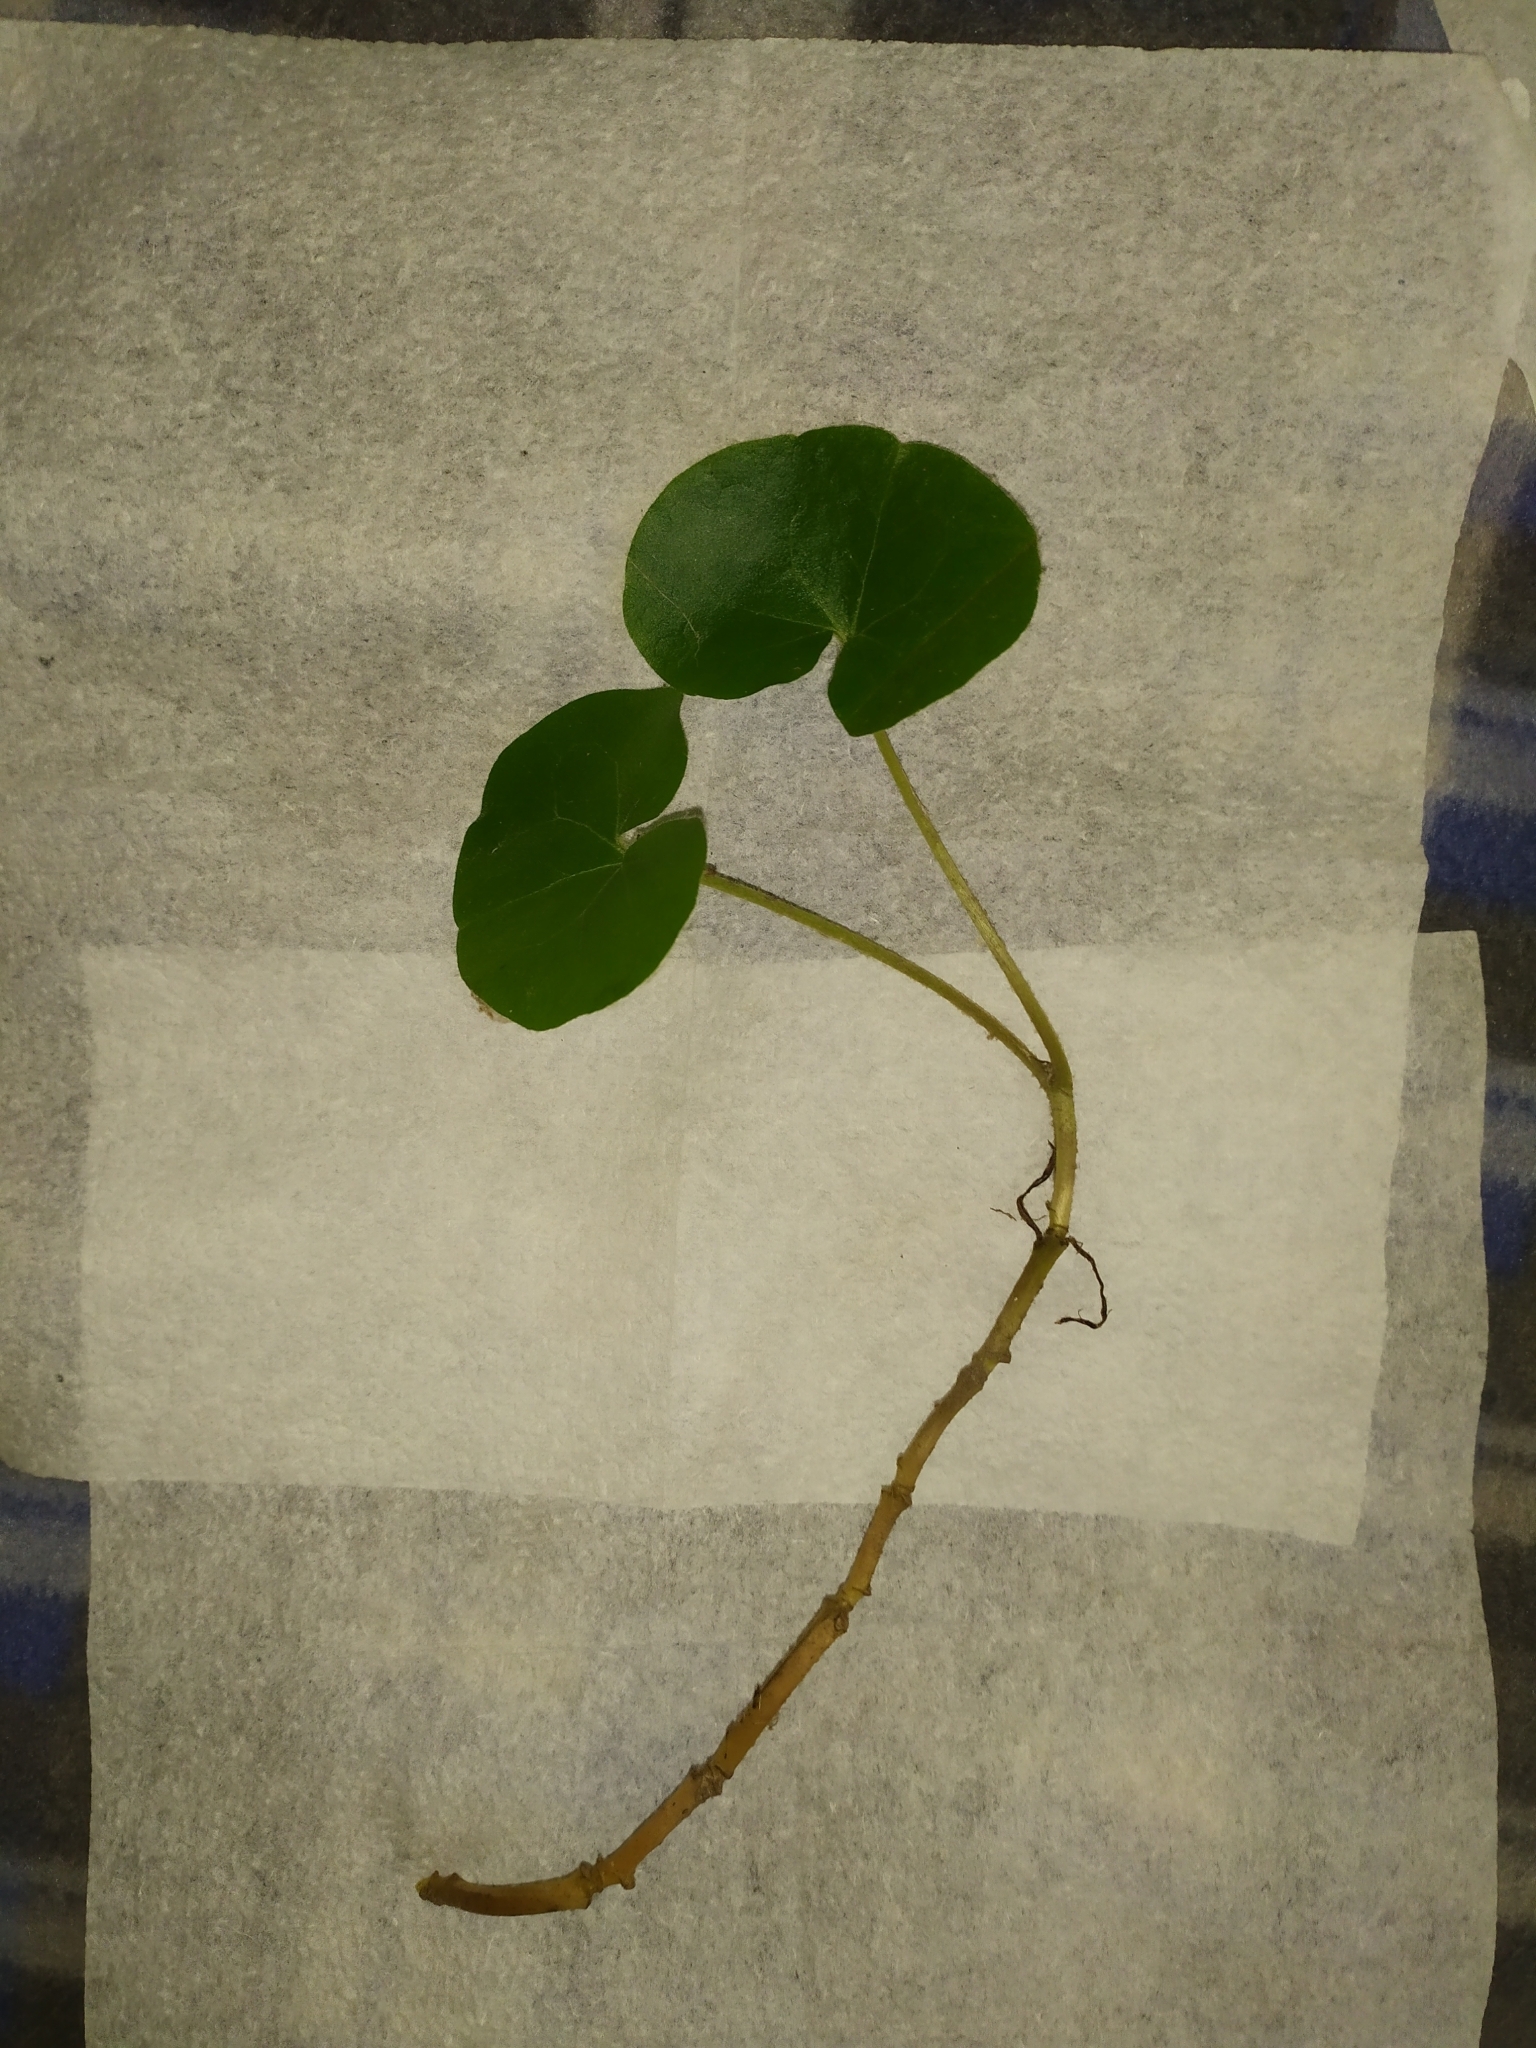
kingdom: Plantae
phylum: Tracheophyta
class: Magnoliopsida
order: Piperales
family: Aristolochiaceae
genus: Asarum
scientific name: Asarum europaeum
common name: Asarabacca
